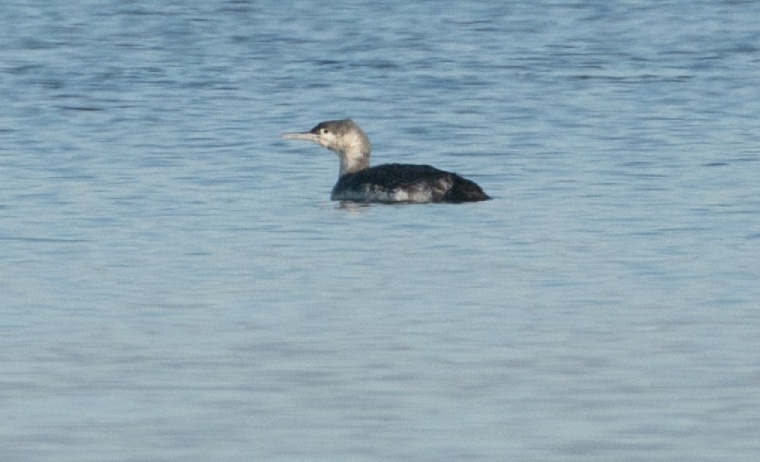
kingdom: Animalia
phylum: Chordata
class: Aves
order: Gaviiformes
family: Gaviidae
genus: Gavia
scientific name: Gavia stellata
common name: Red-throated loon
